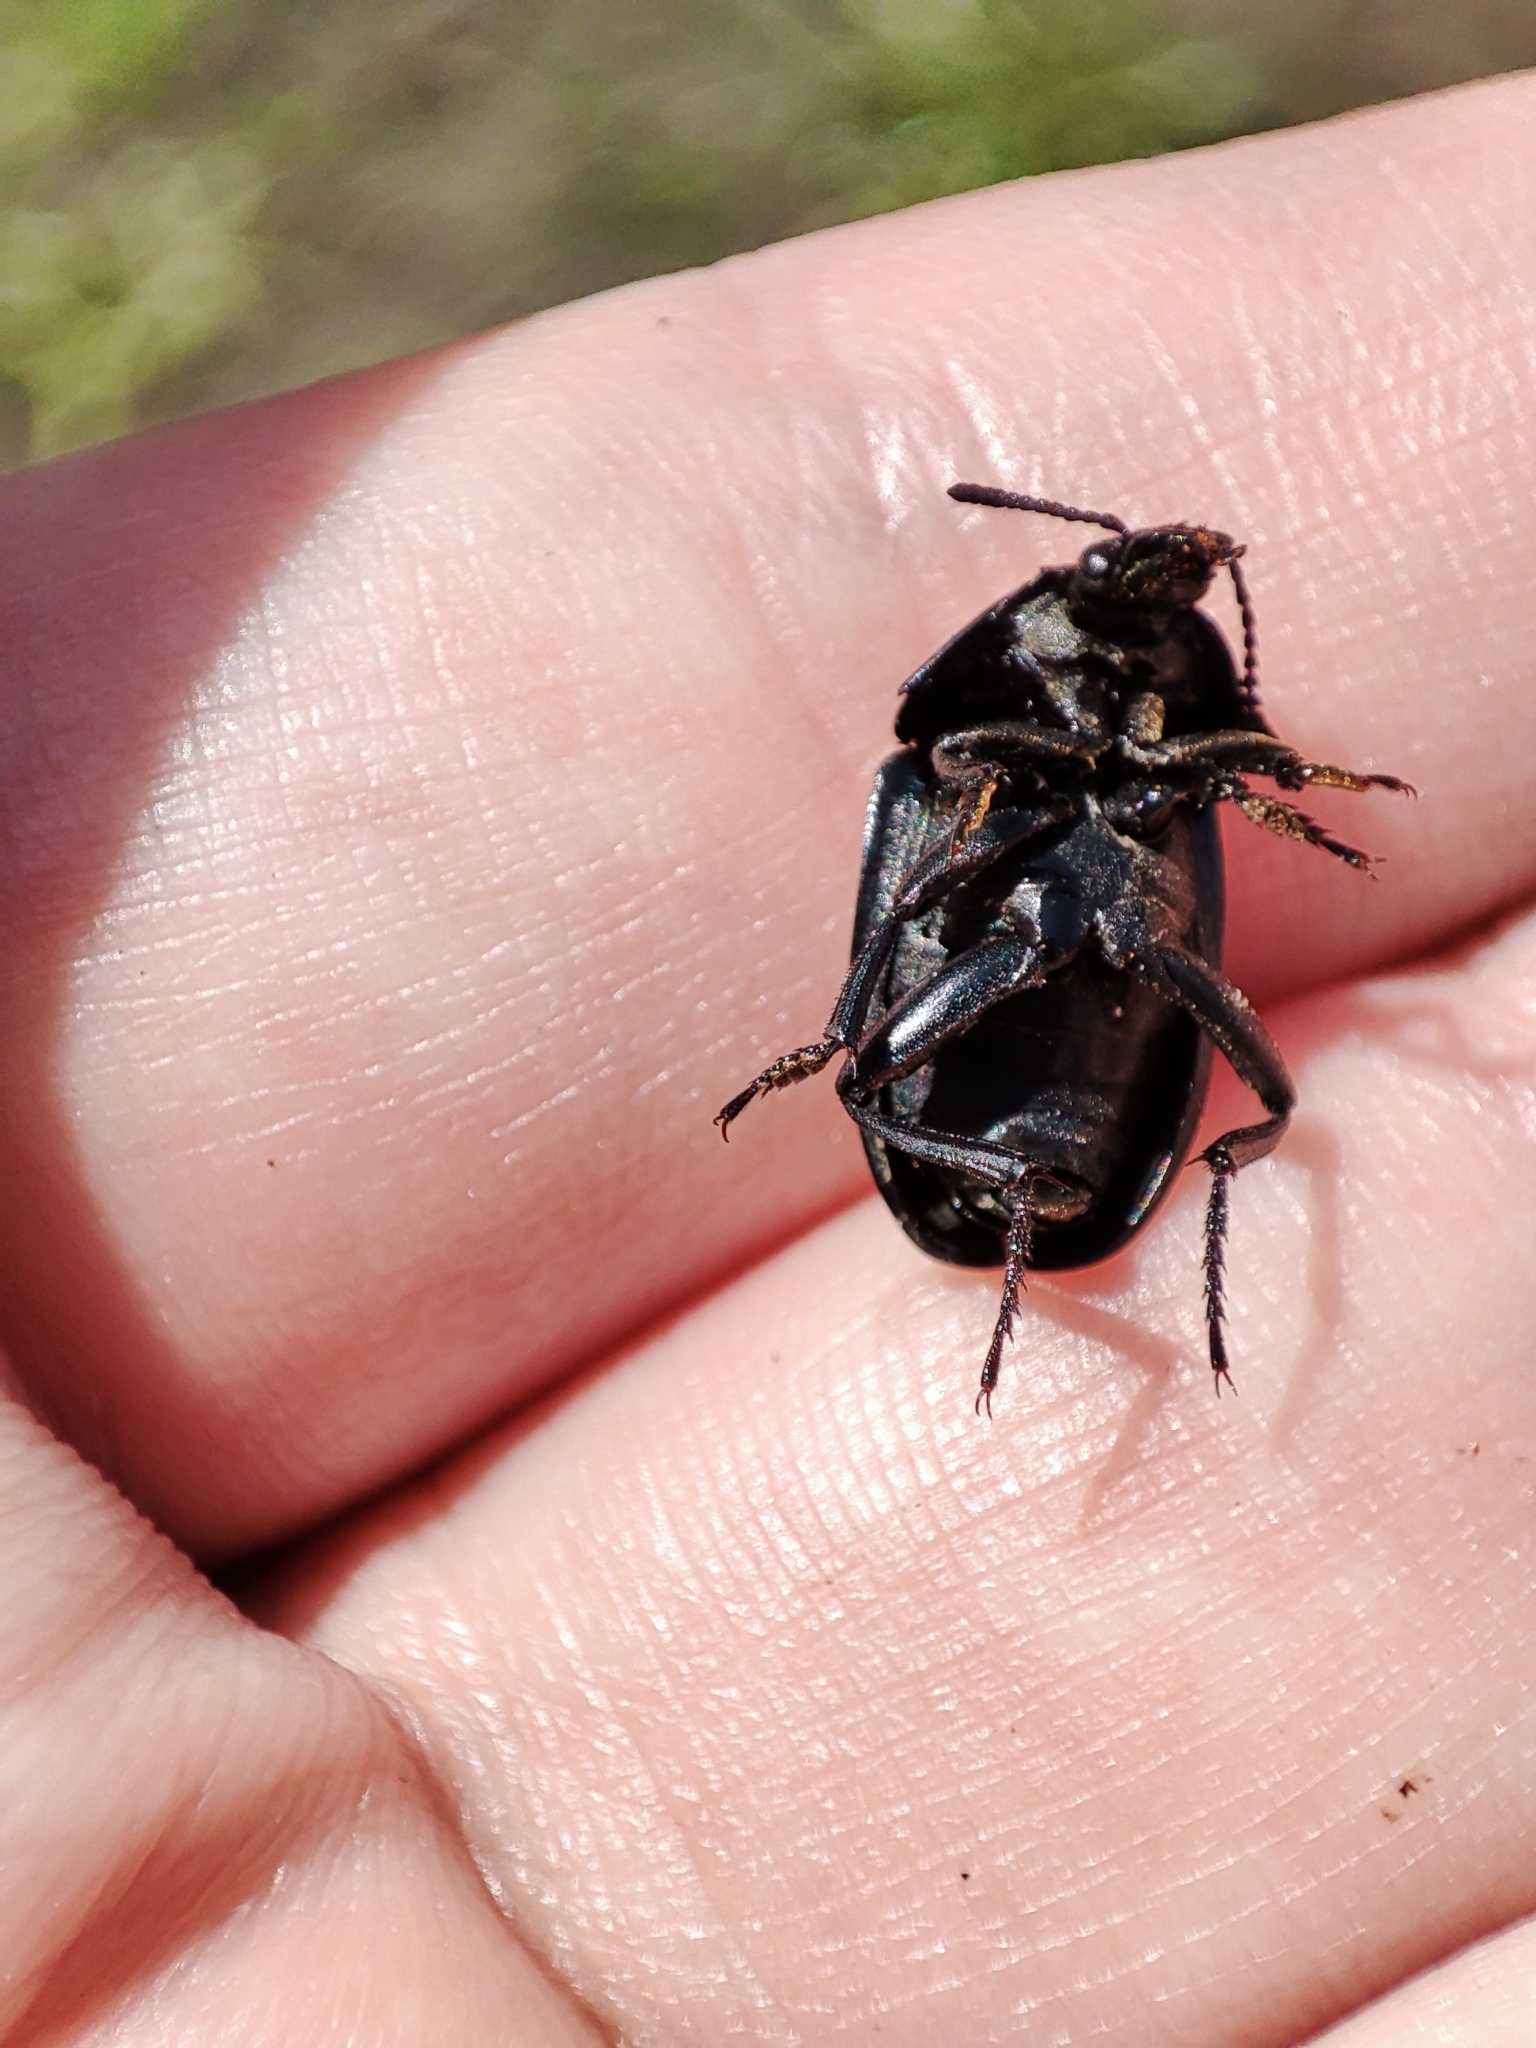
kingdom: Animalia
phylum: Arthropoda
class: Insecta
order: Coleoptera
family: Staphylinidae
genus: Silpha
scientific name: Silpha obscura
